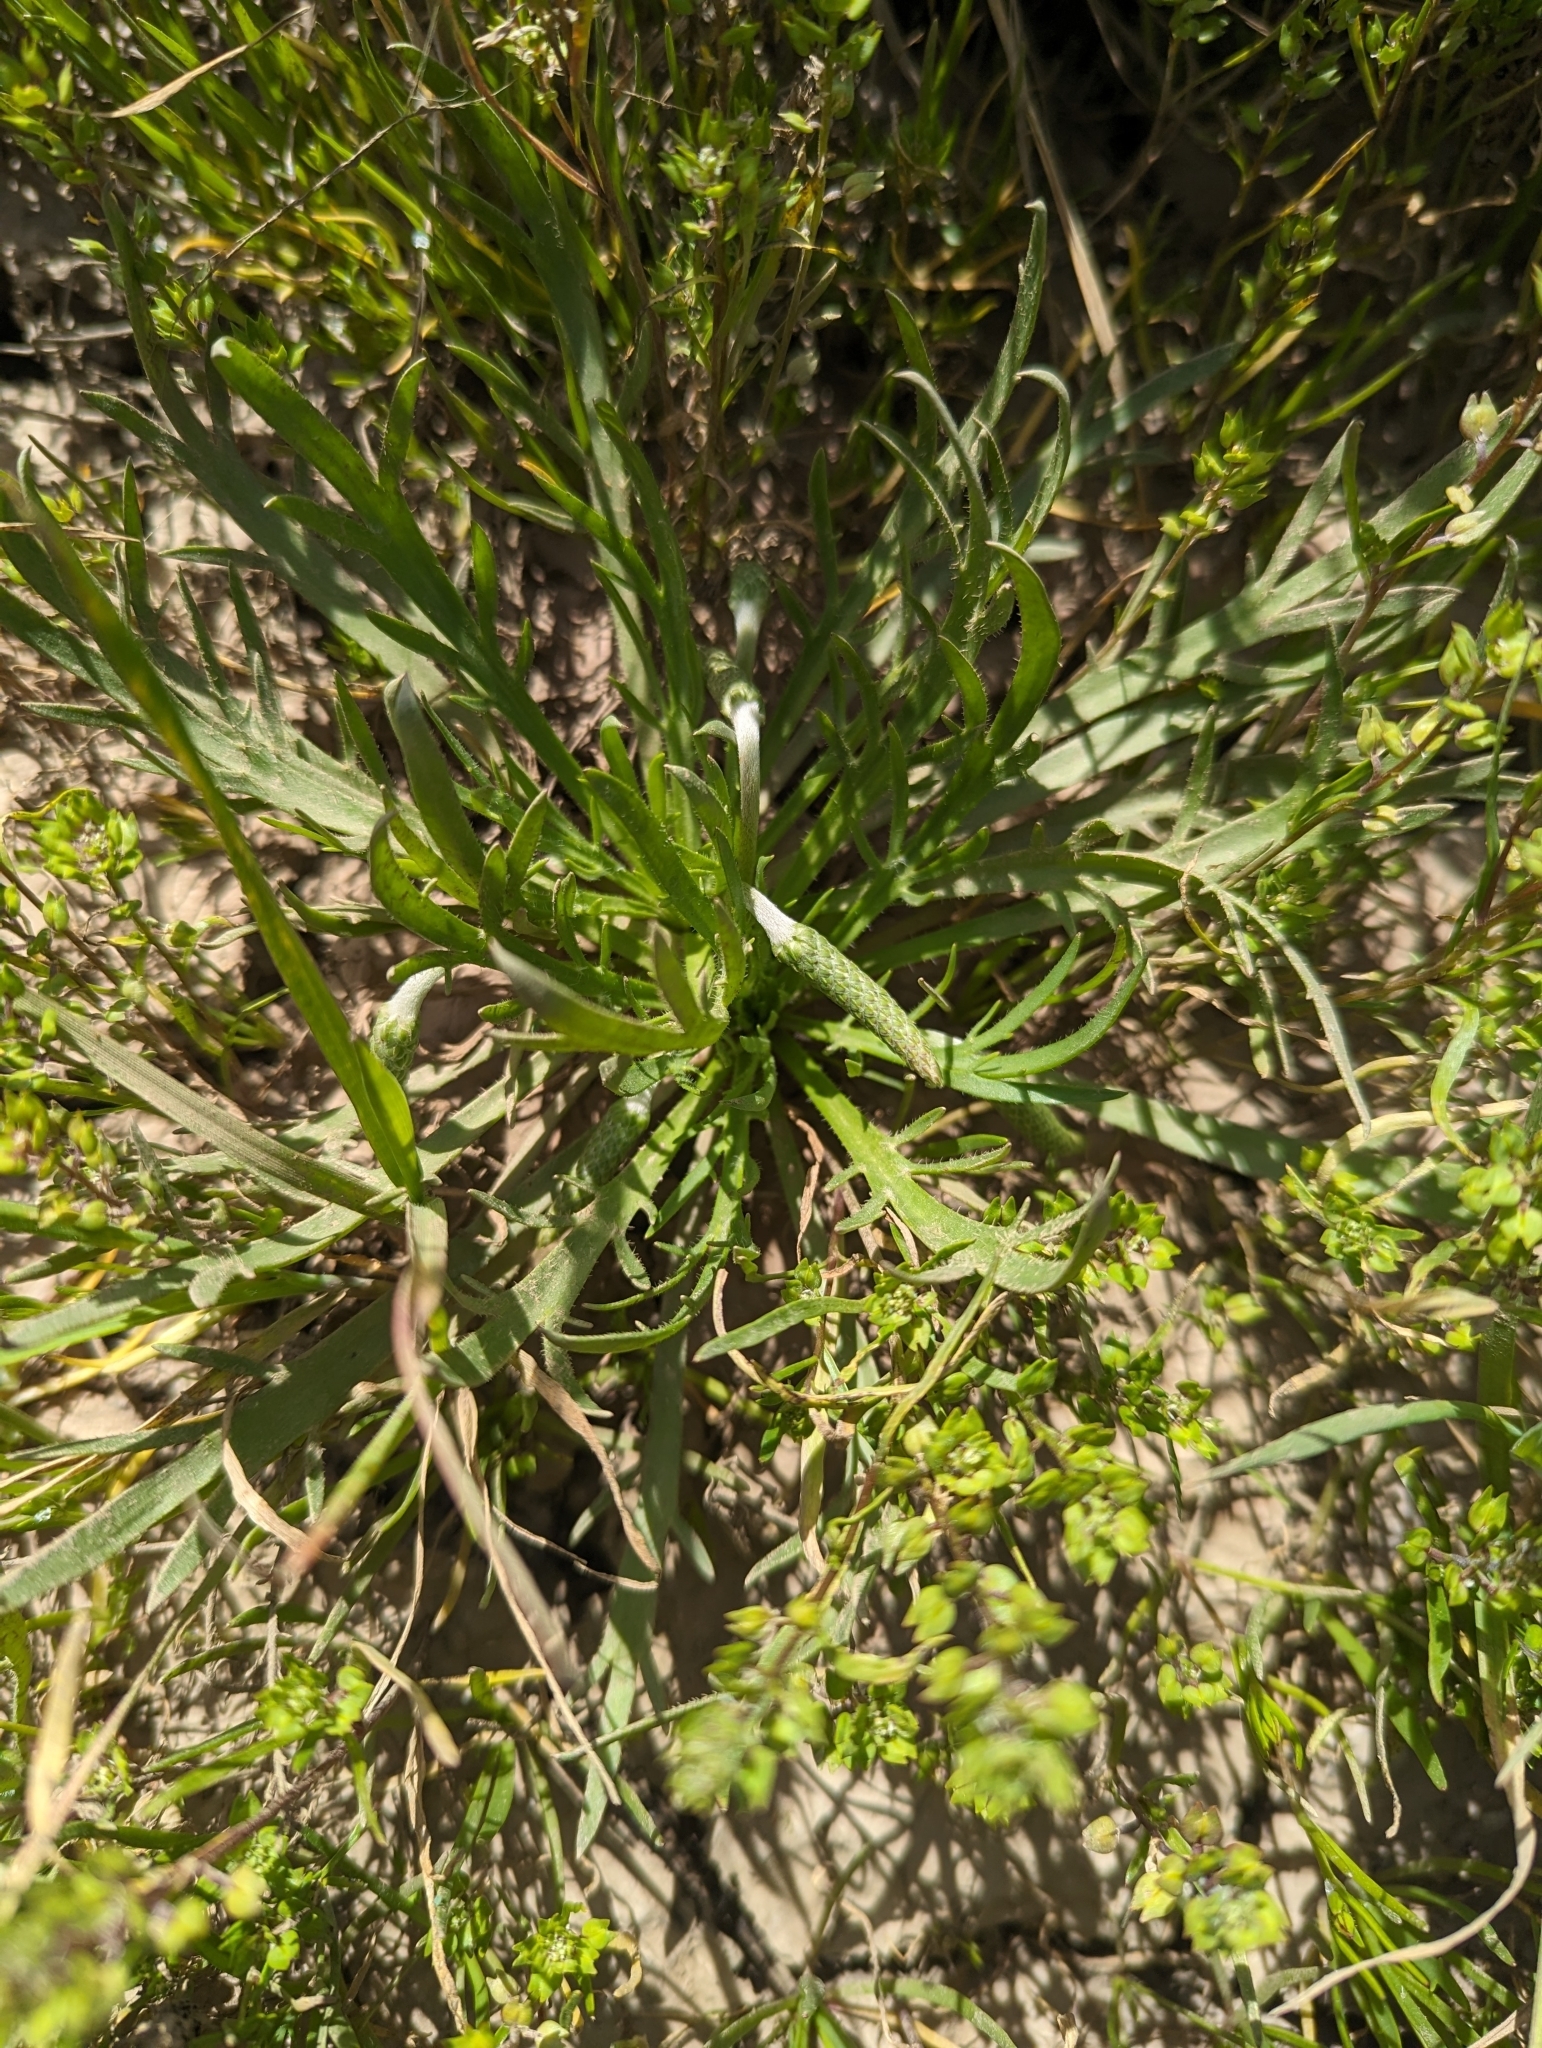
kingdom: Plantae
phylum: Tracheophyta
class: Magnoliopsida
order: Lamiales
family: Plantaginaceae
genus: Plantago
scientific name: Plantago coronopus
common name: Buck's-horn plantain
